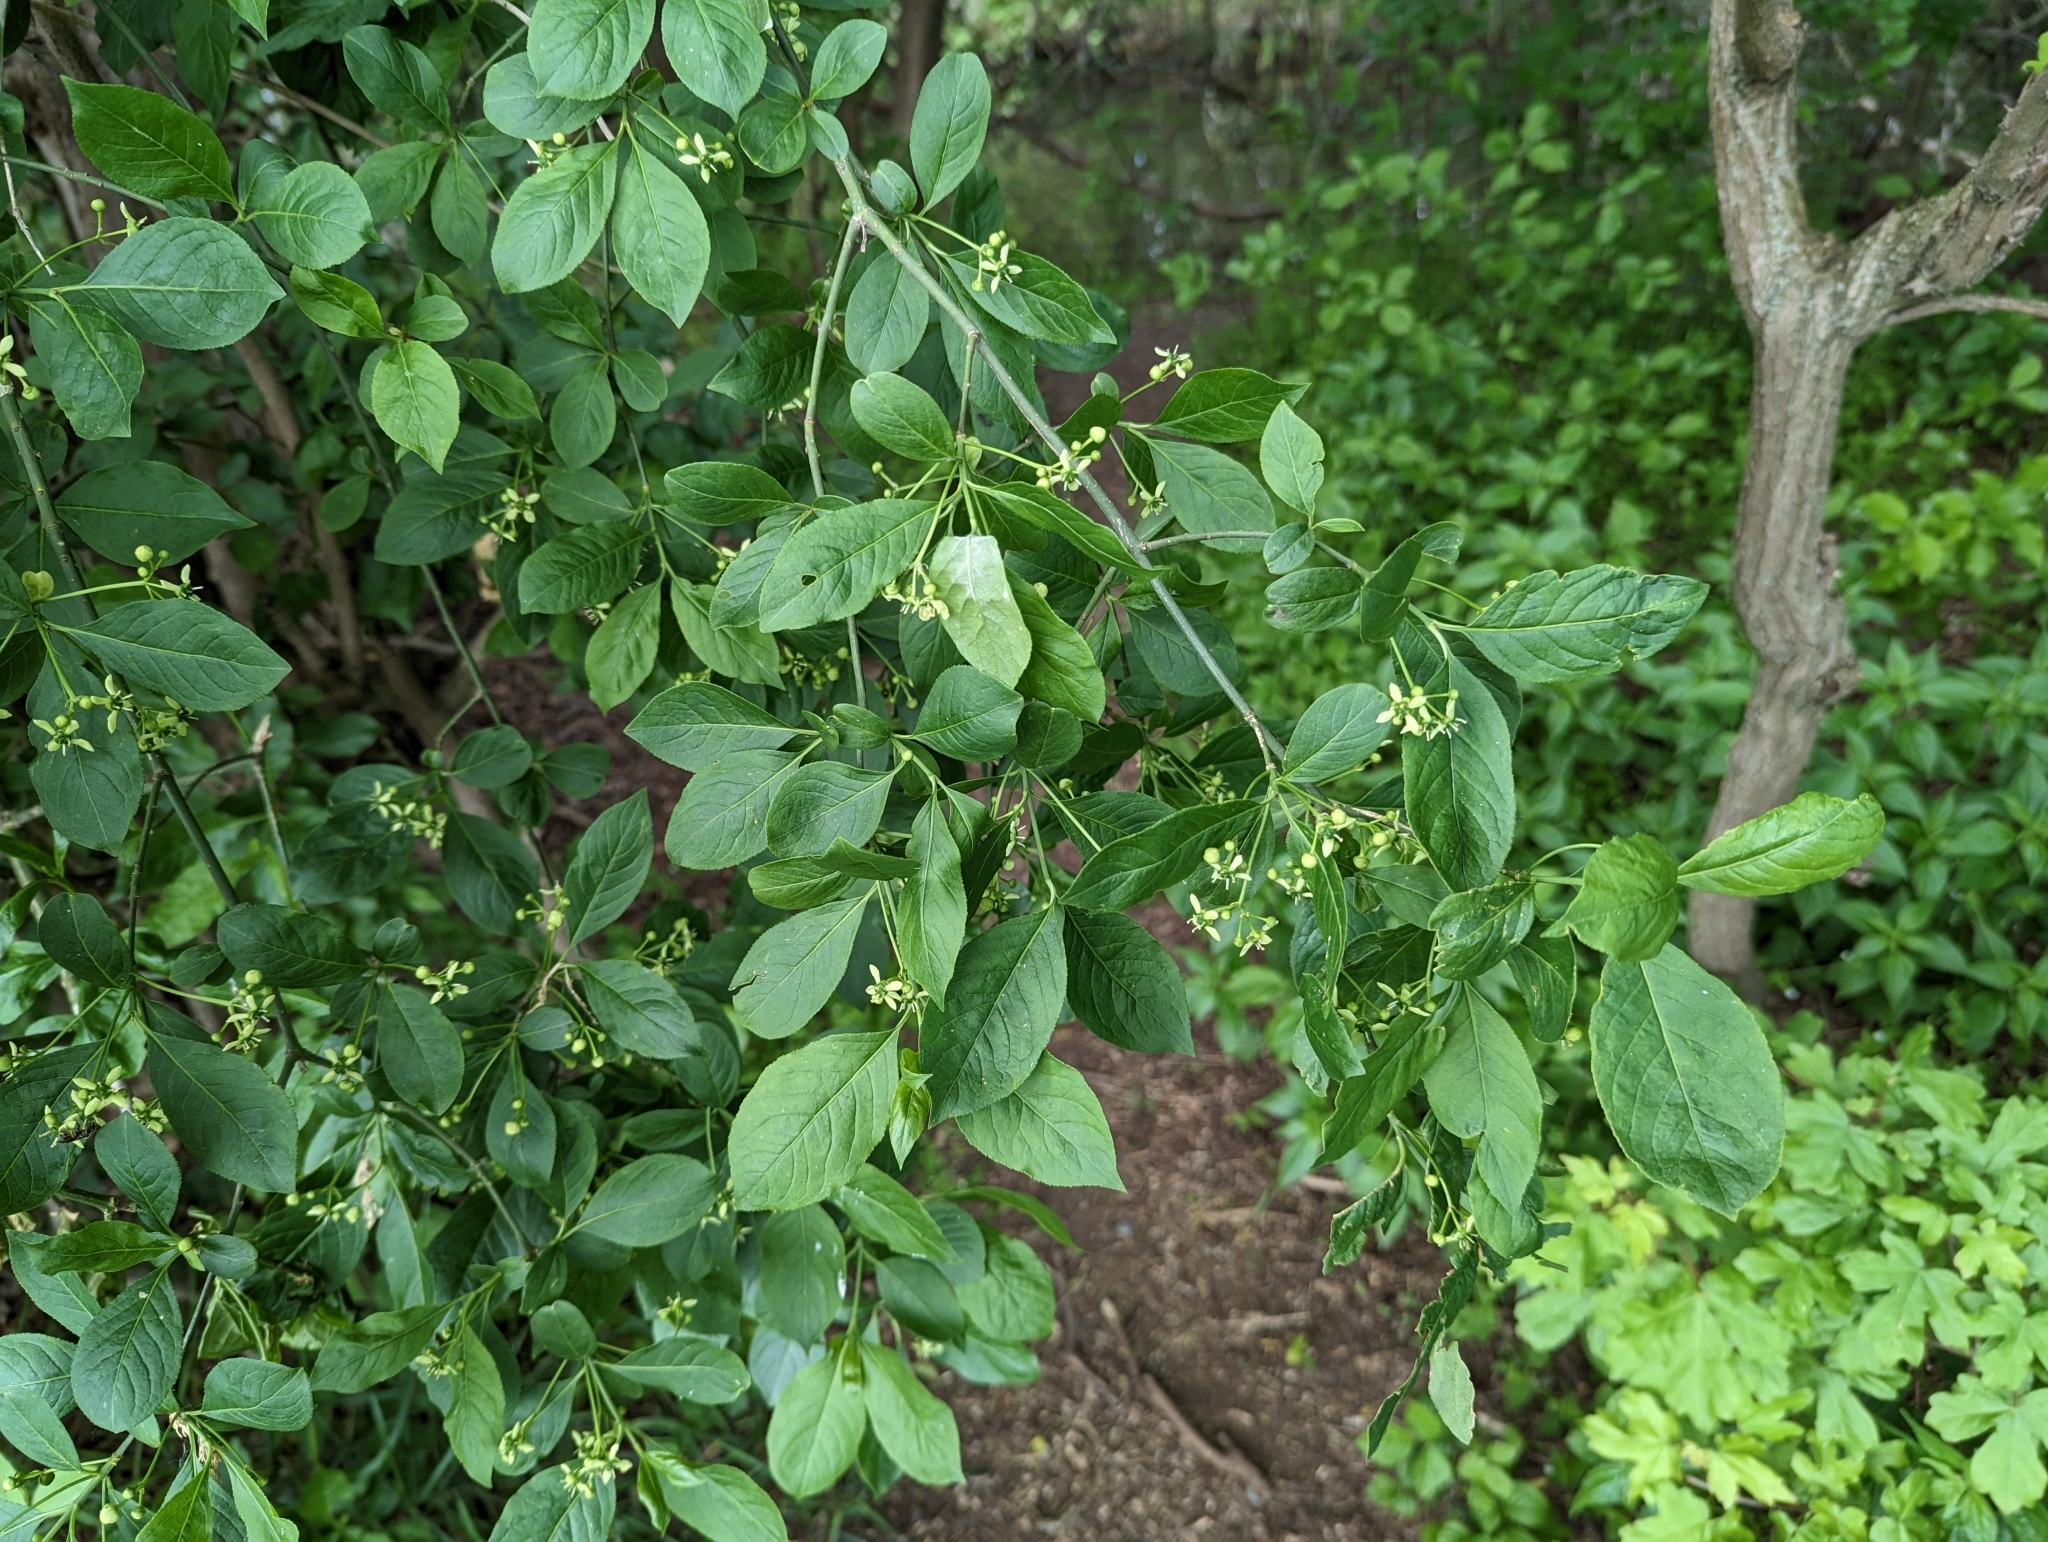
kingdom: Plantae
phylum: Tracheophyta
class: Magnoliopsida
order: Celastrales
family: Celastraceae
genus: Euonymus
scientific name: Euonymus europaeus
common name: Spindle
